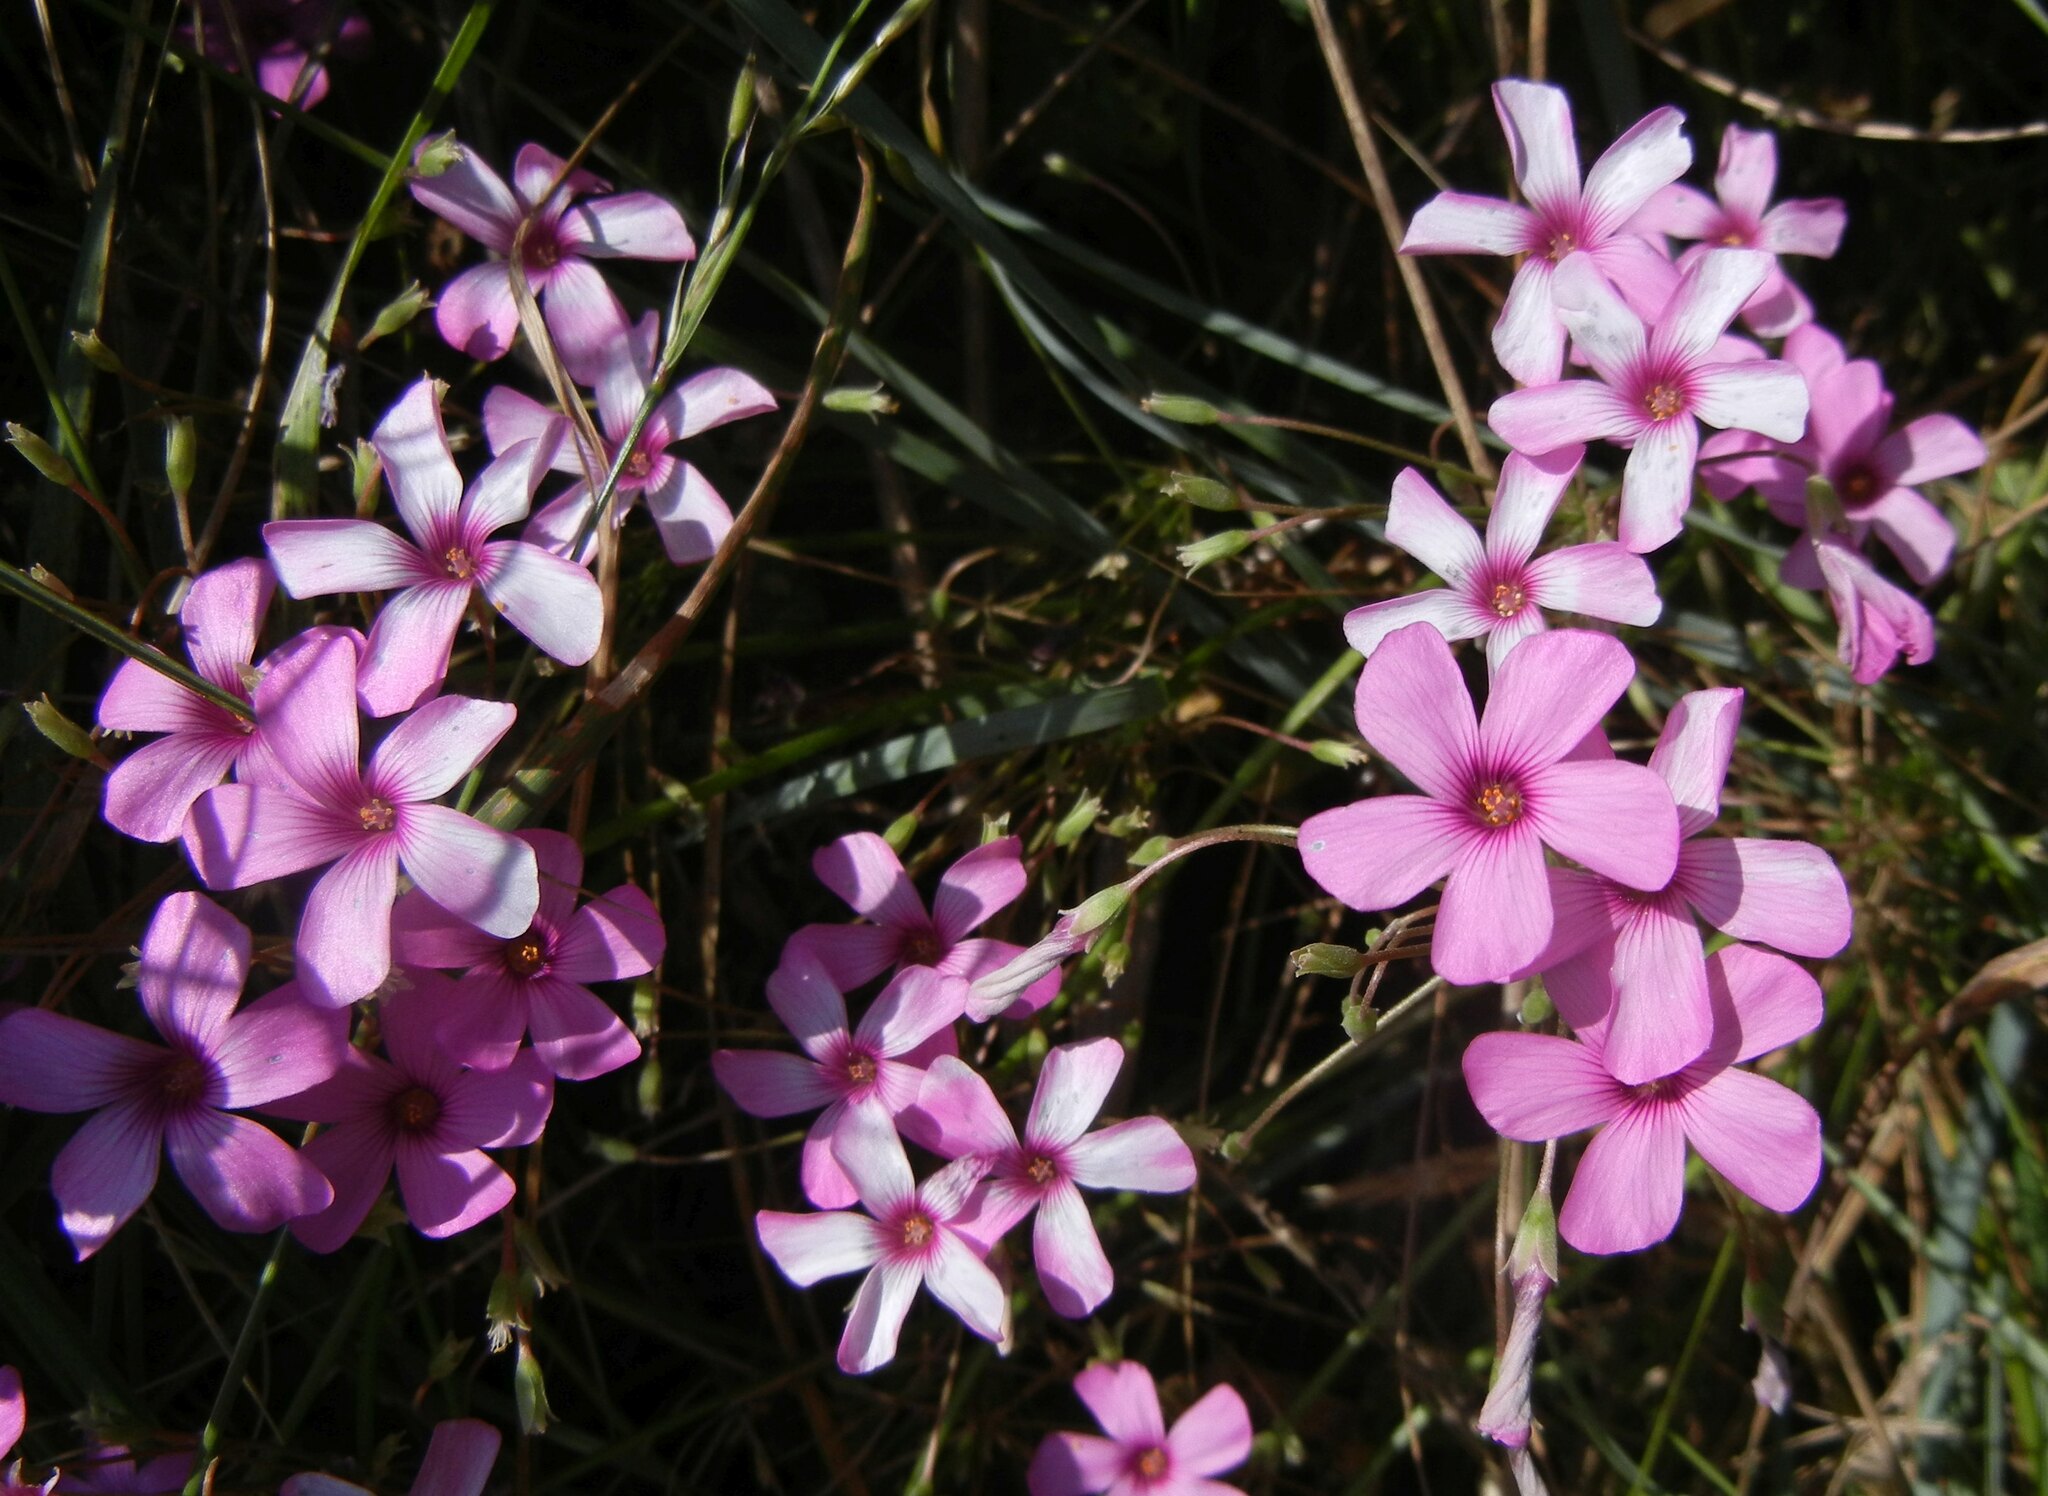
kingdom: Plantae
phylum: Tracheophyta
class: Magnoliopsida
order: Oxalidales
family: Oxalidaceae
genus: Oxalis
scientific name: Oxalis articulata
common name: Pink-sorrel
